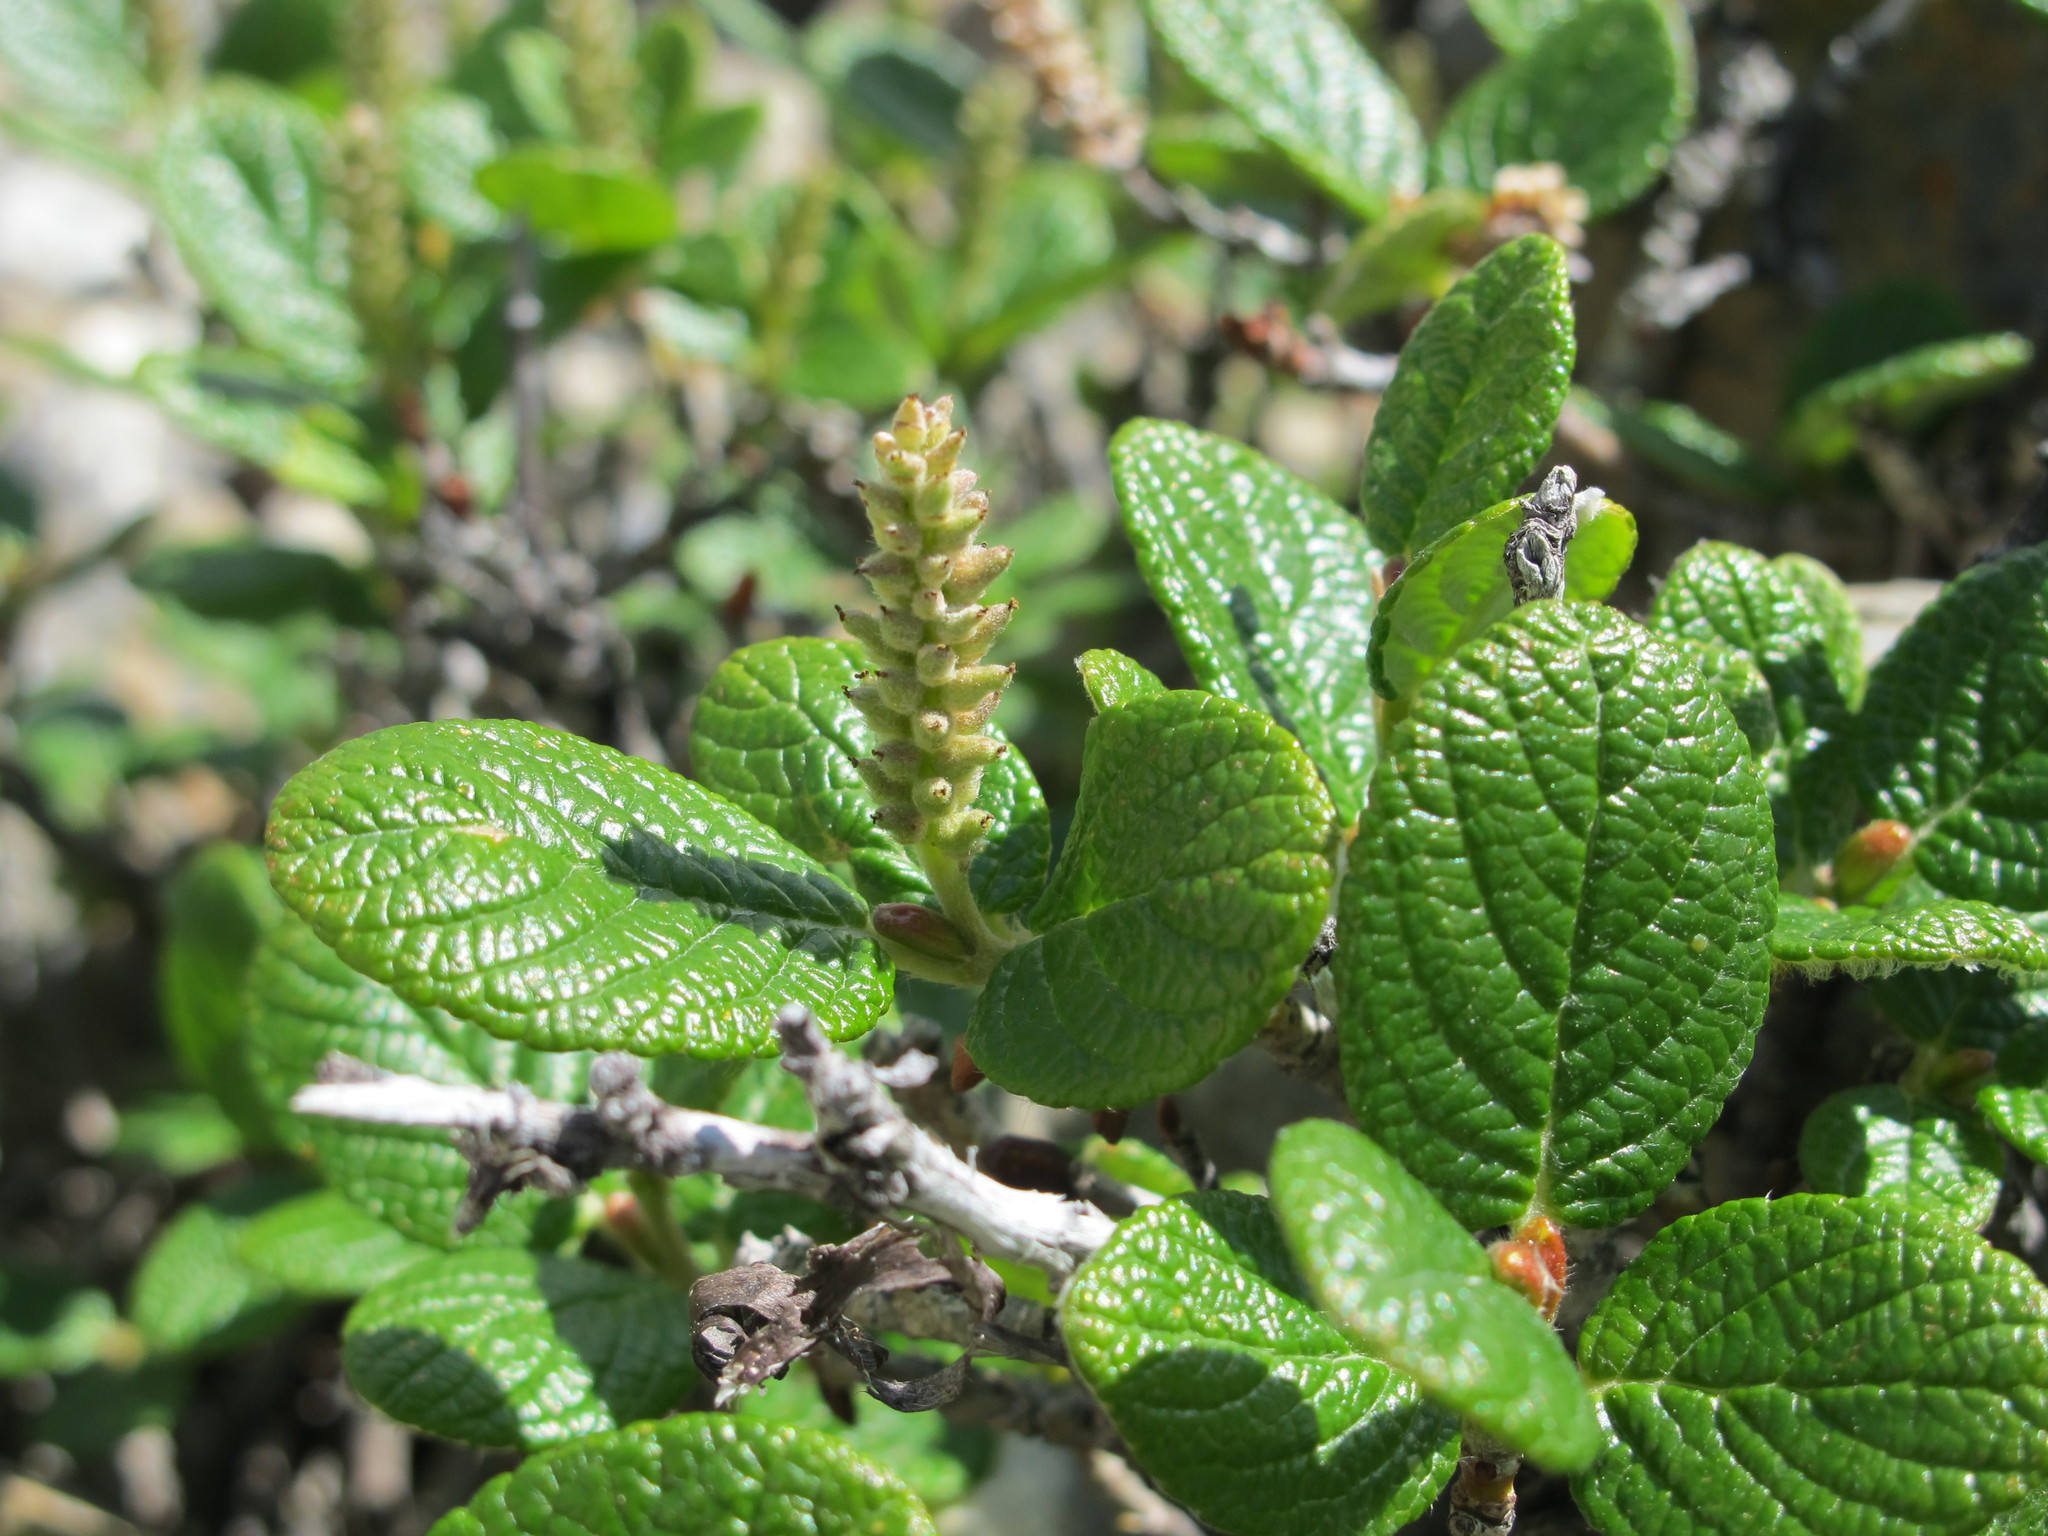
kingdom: Plantae
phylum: Tracheophyta
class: Magnoliopsida
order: Malpighiales
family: Salicaceae
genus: Salix
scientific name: Salix vestita
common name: Hairy willow
